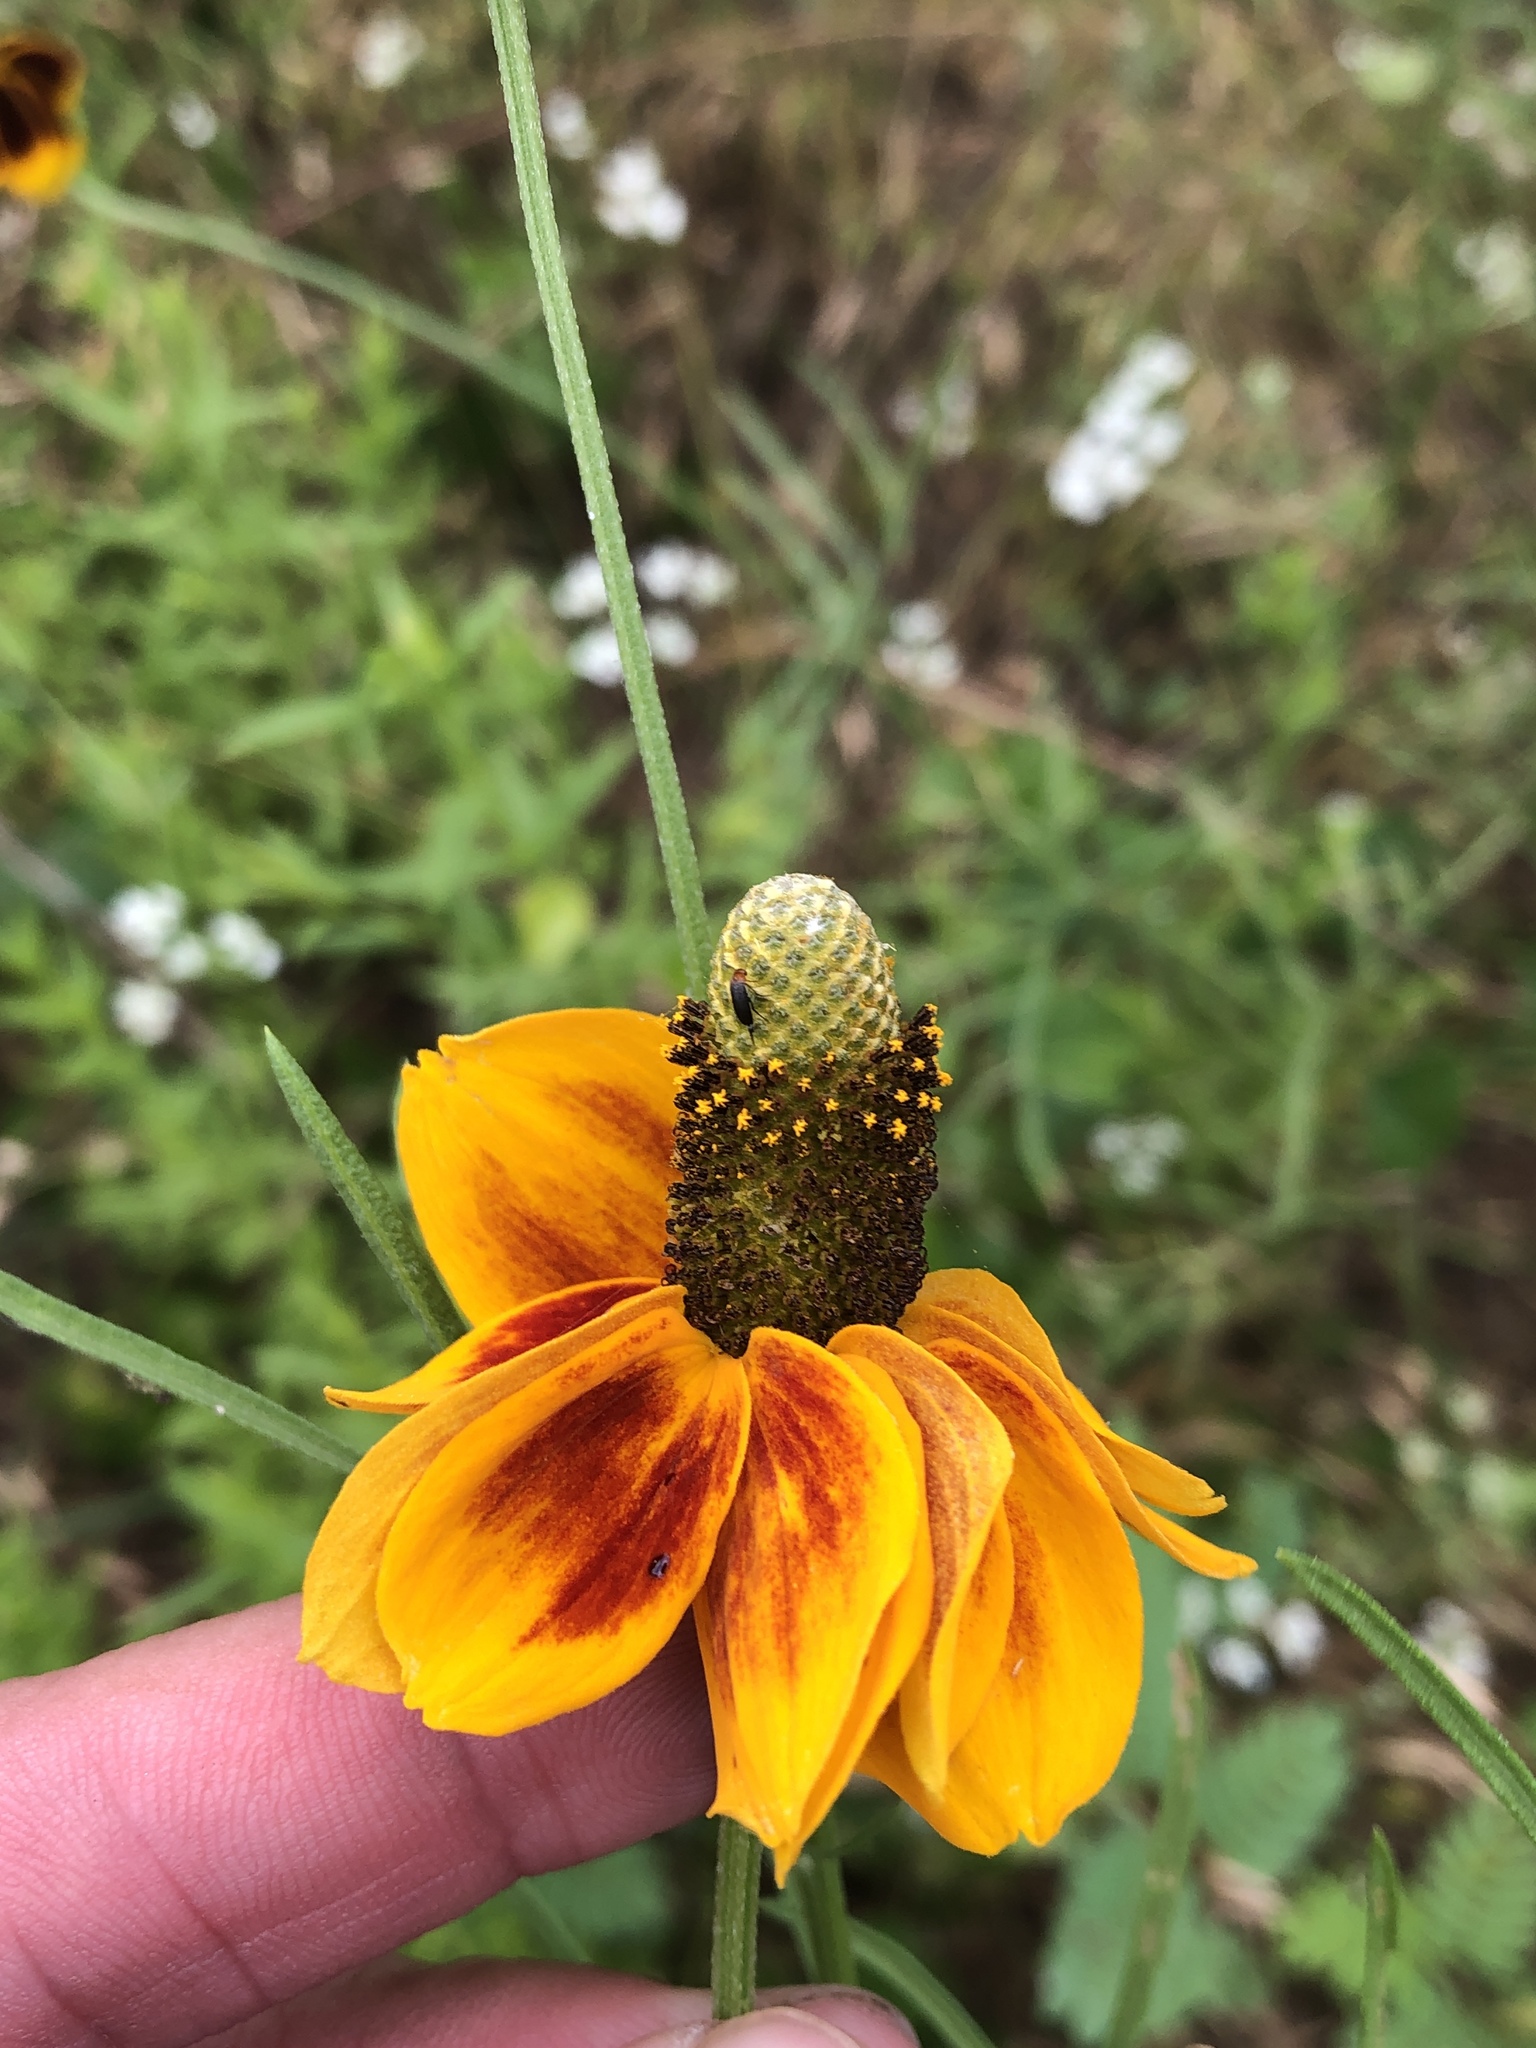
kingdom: Plantae
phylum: Tracheophyta
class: Magnoliopsida
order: Asterales
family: Asteraceae
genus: Ratibida
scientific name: Ratibida columnifera
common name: Prairie coneflower
